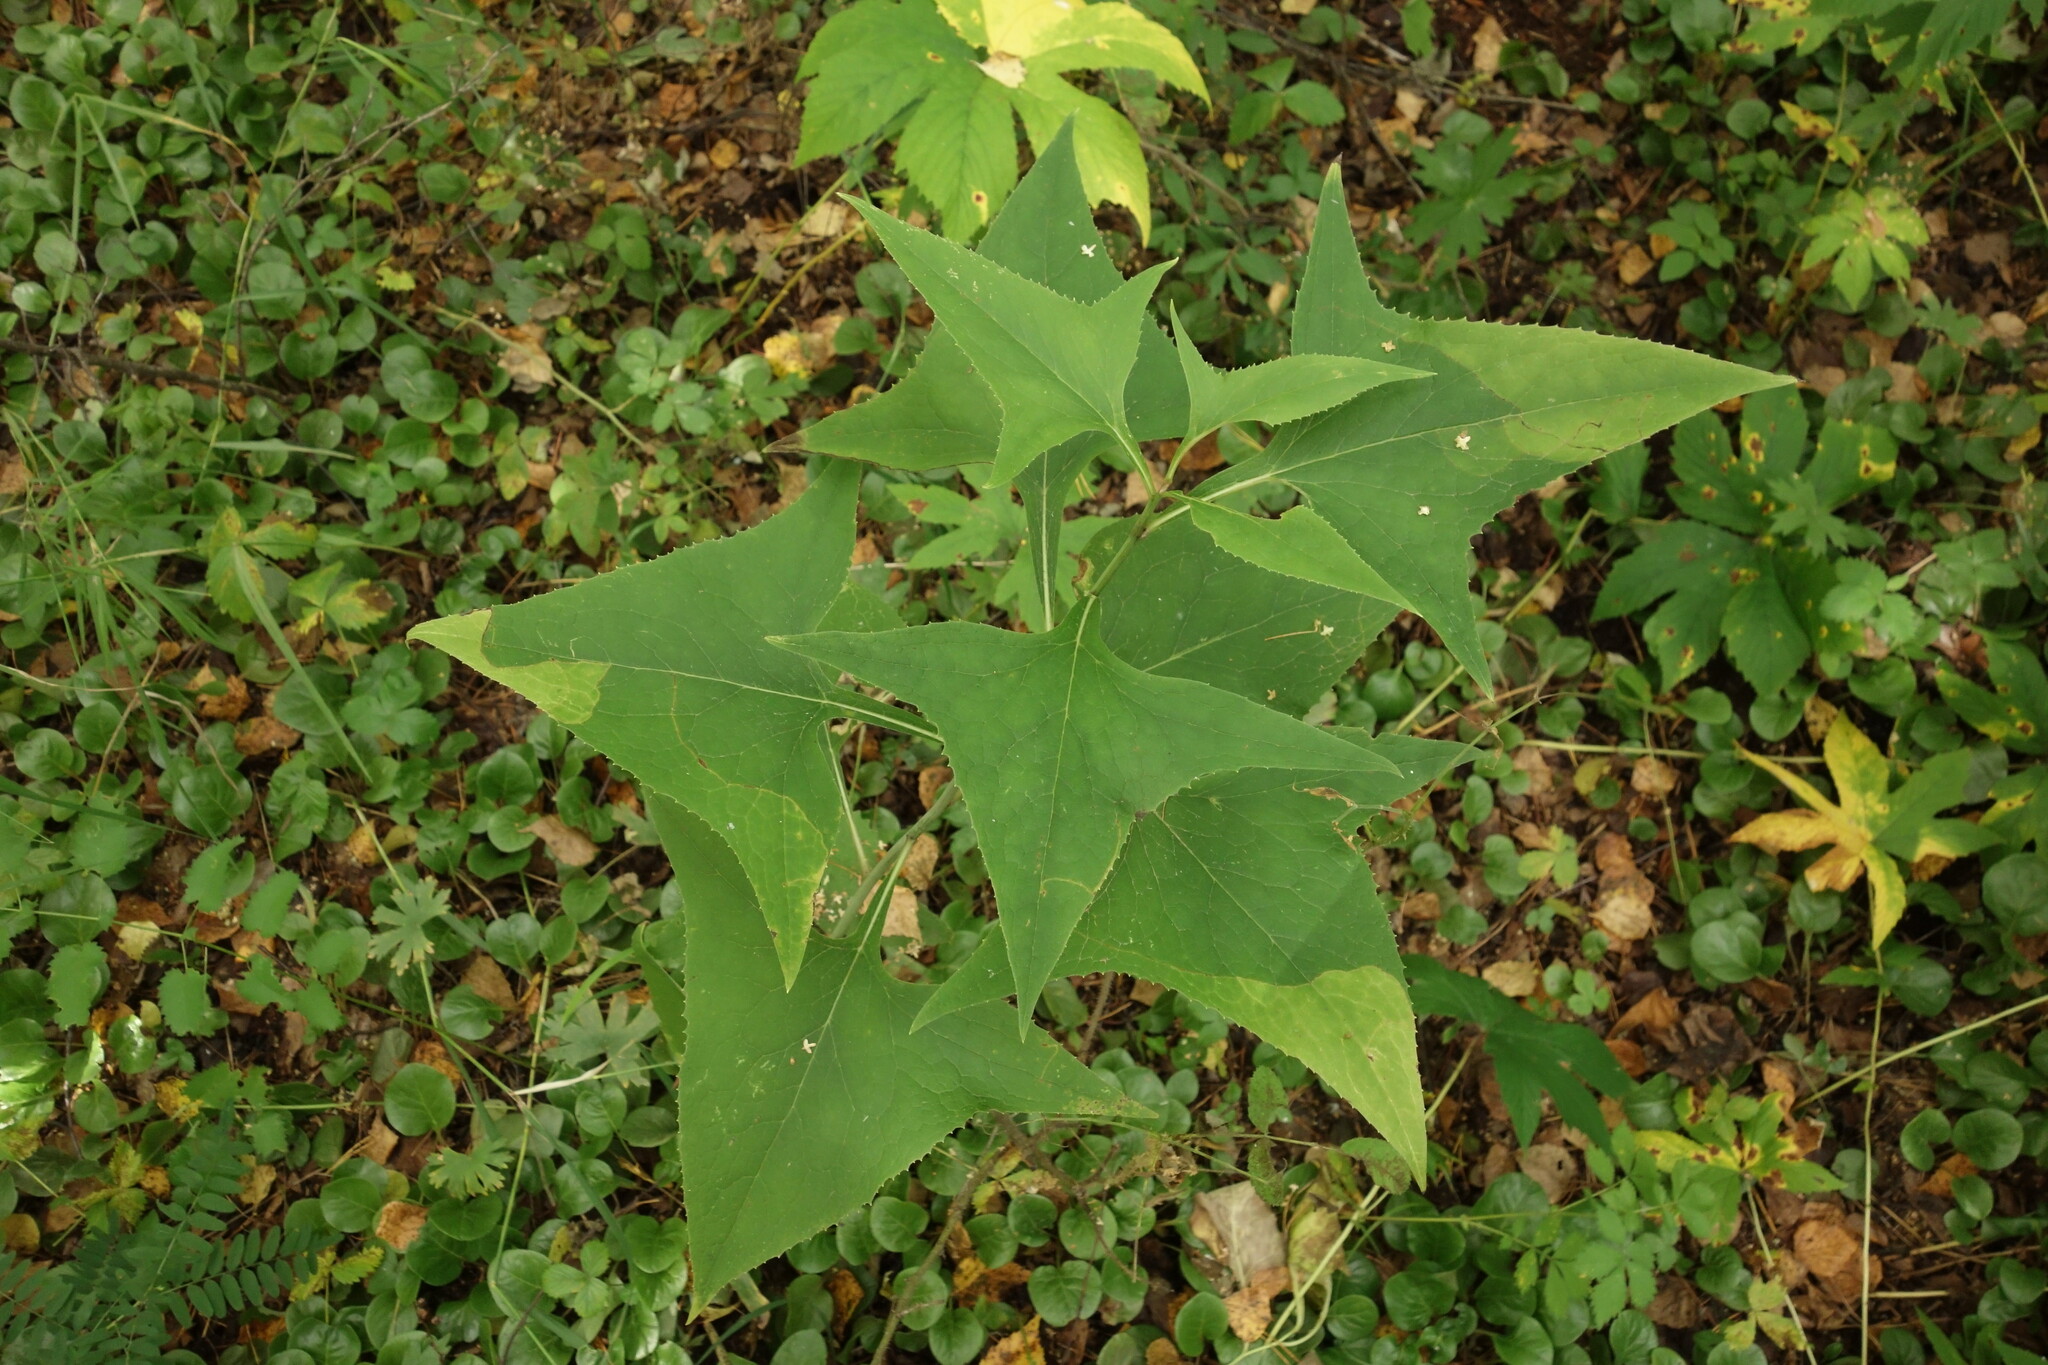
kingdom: Plantae
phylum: Tracheophyta
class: Magnoliopsida
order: Asterales
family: Asteraceae
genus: Parasenecio
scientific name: Parasenecio hastatus
